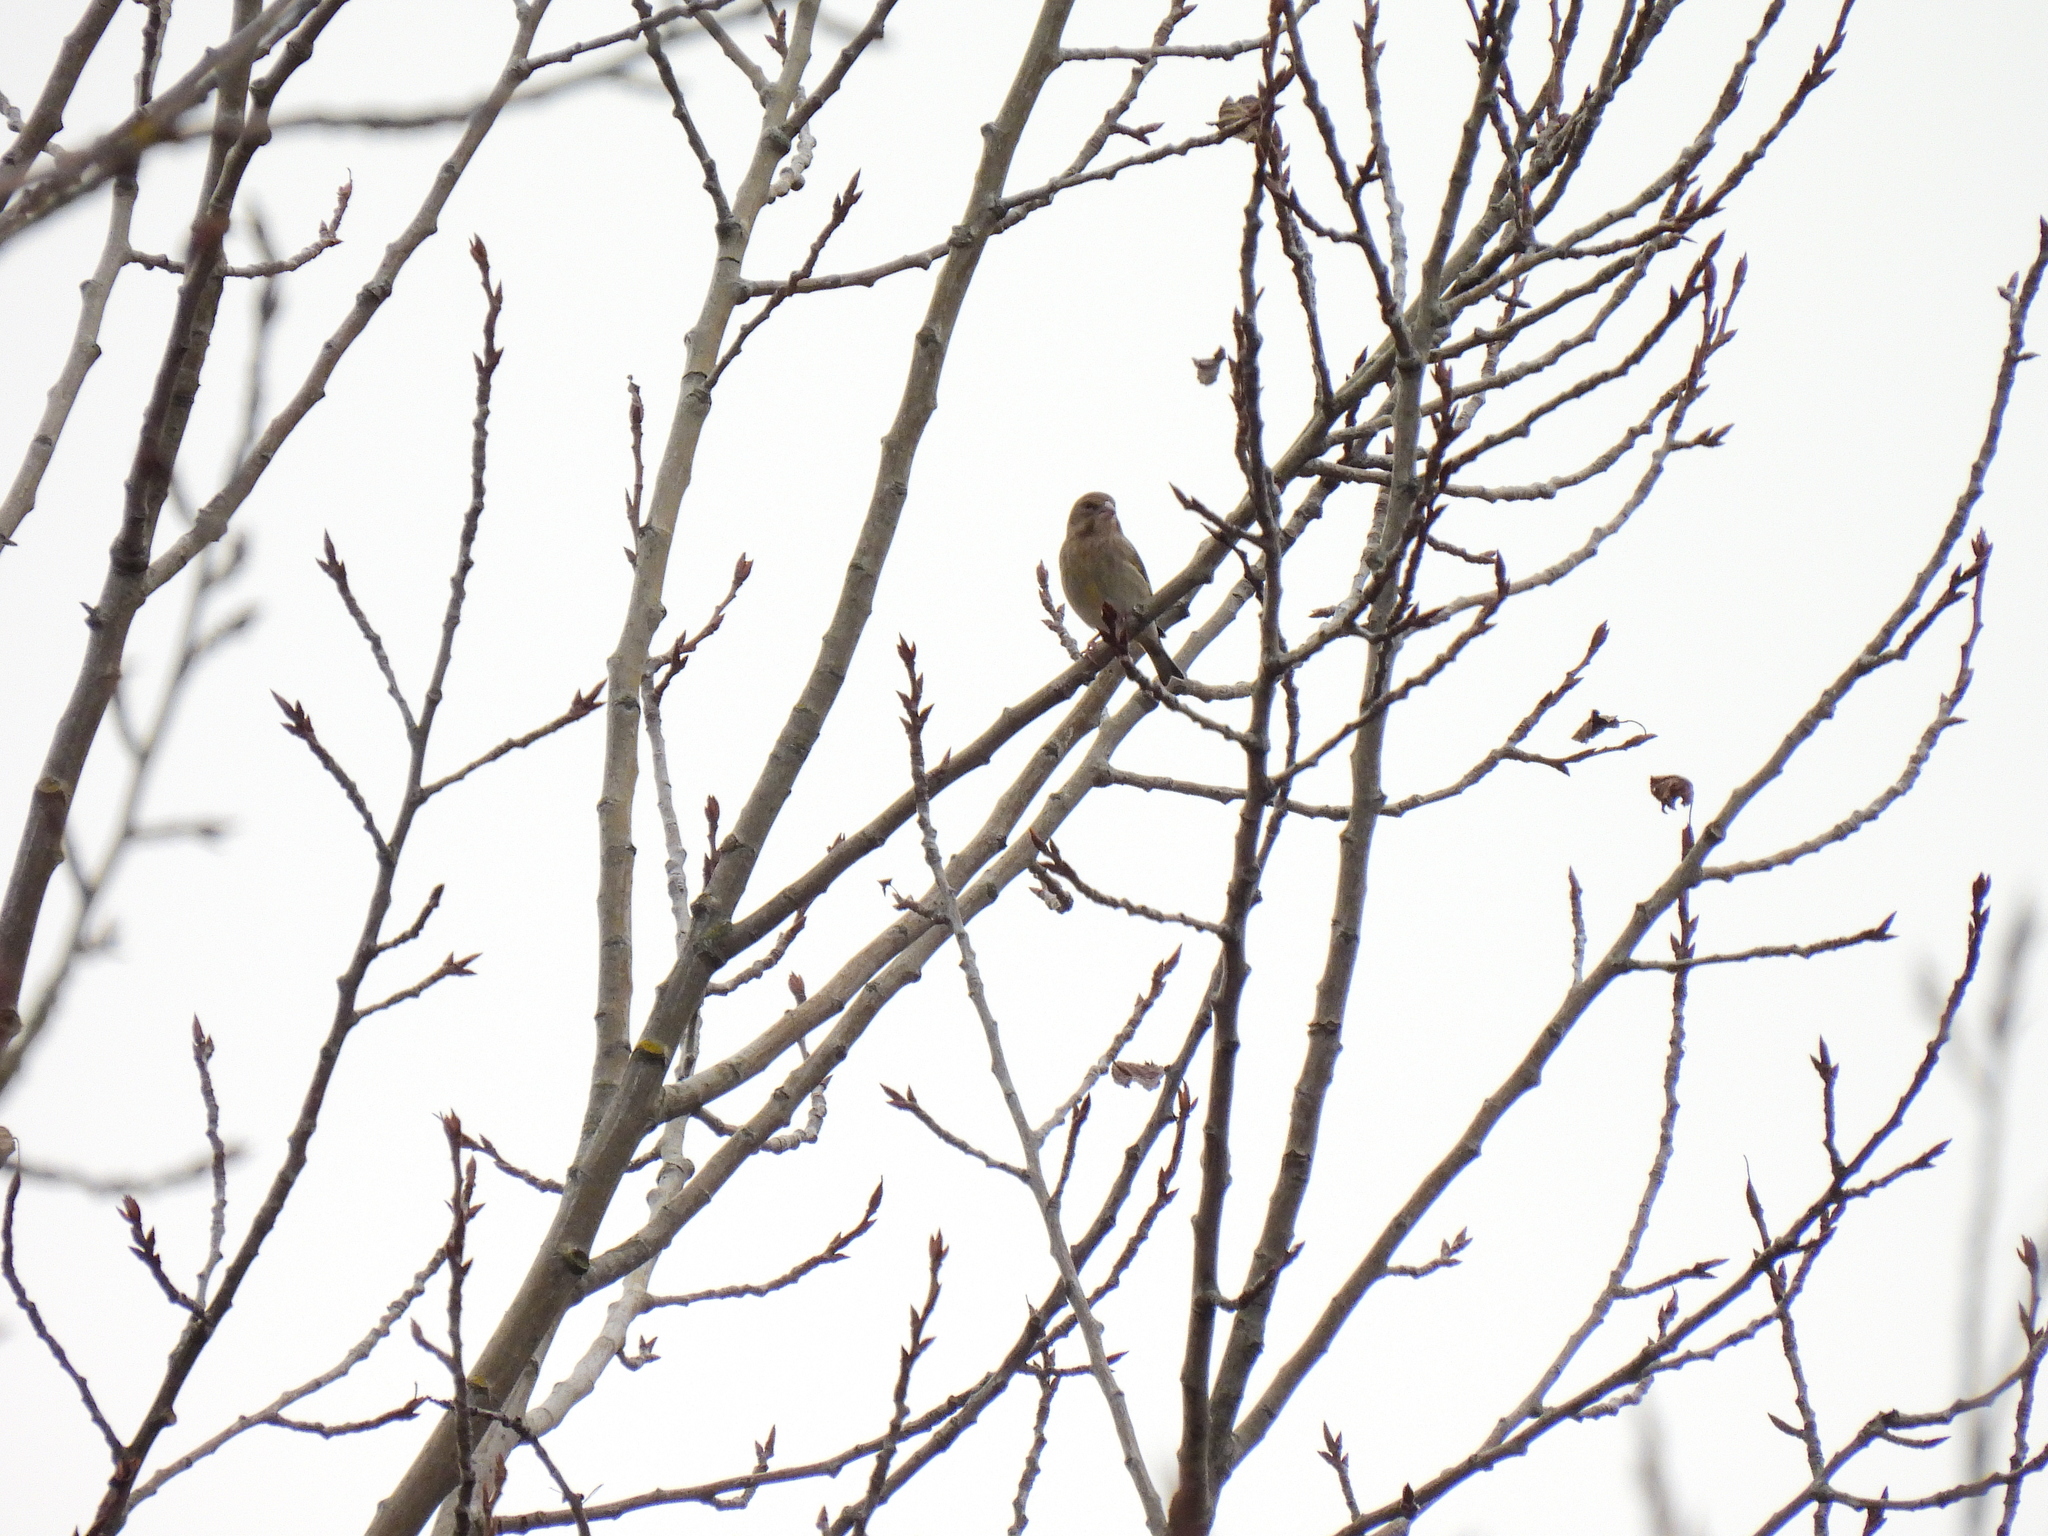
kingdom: Plantae
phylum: Tracheophyta
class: Liliopsida
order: Poales
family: Poaceae
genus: Chloris
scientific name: Chloris chloris
